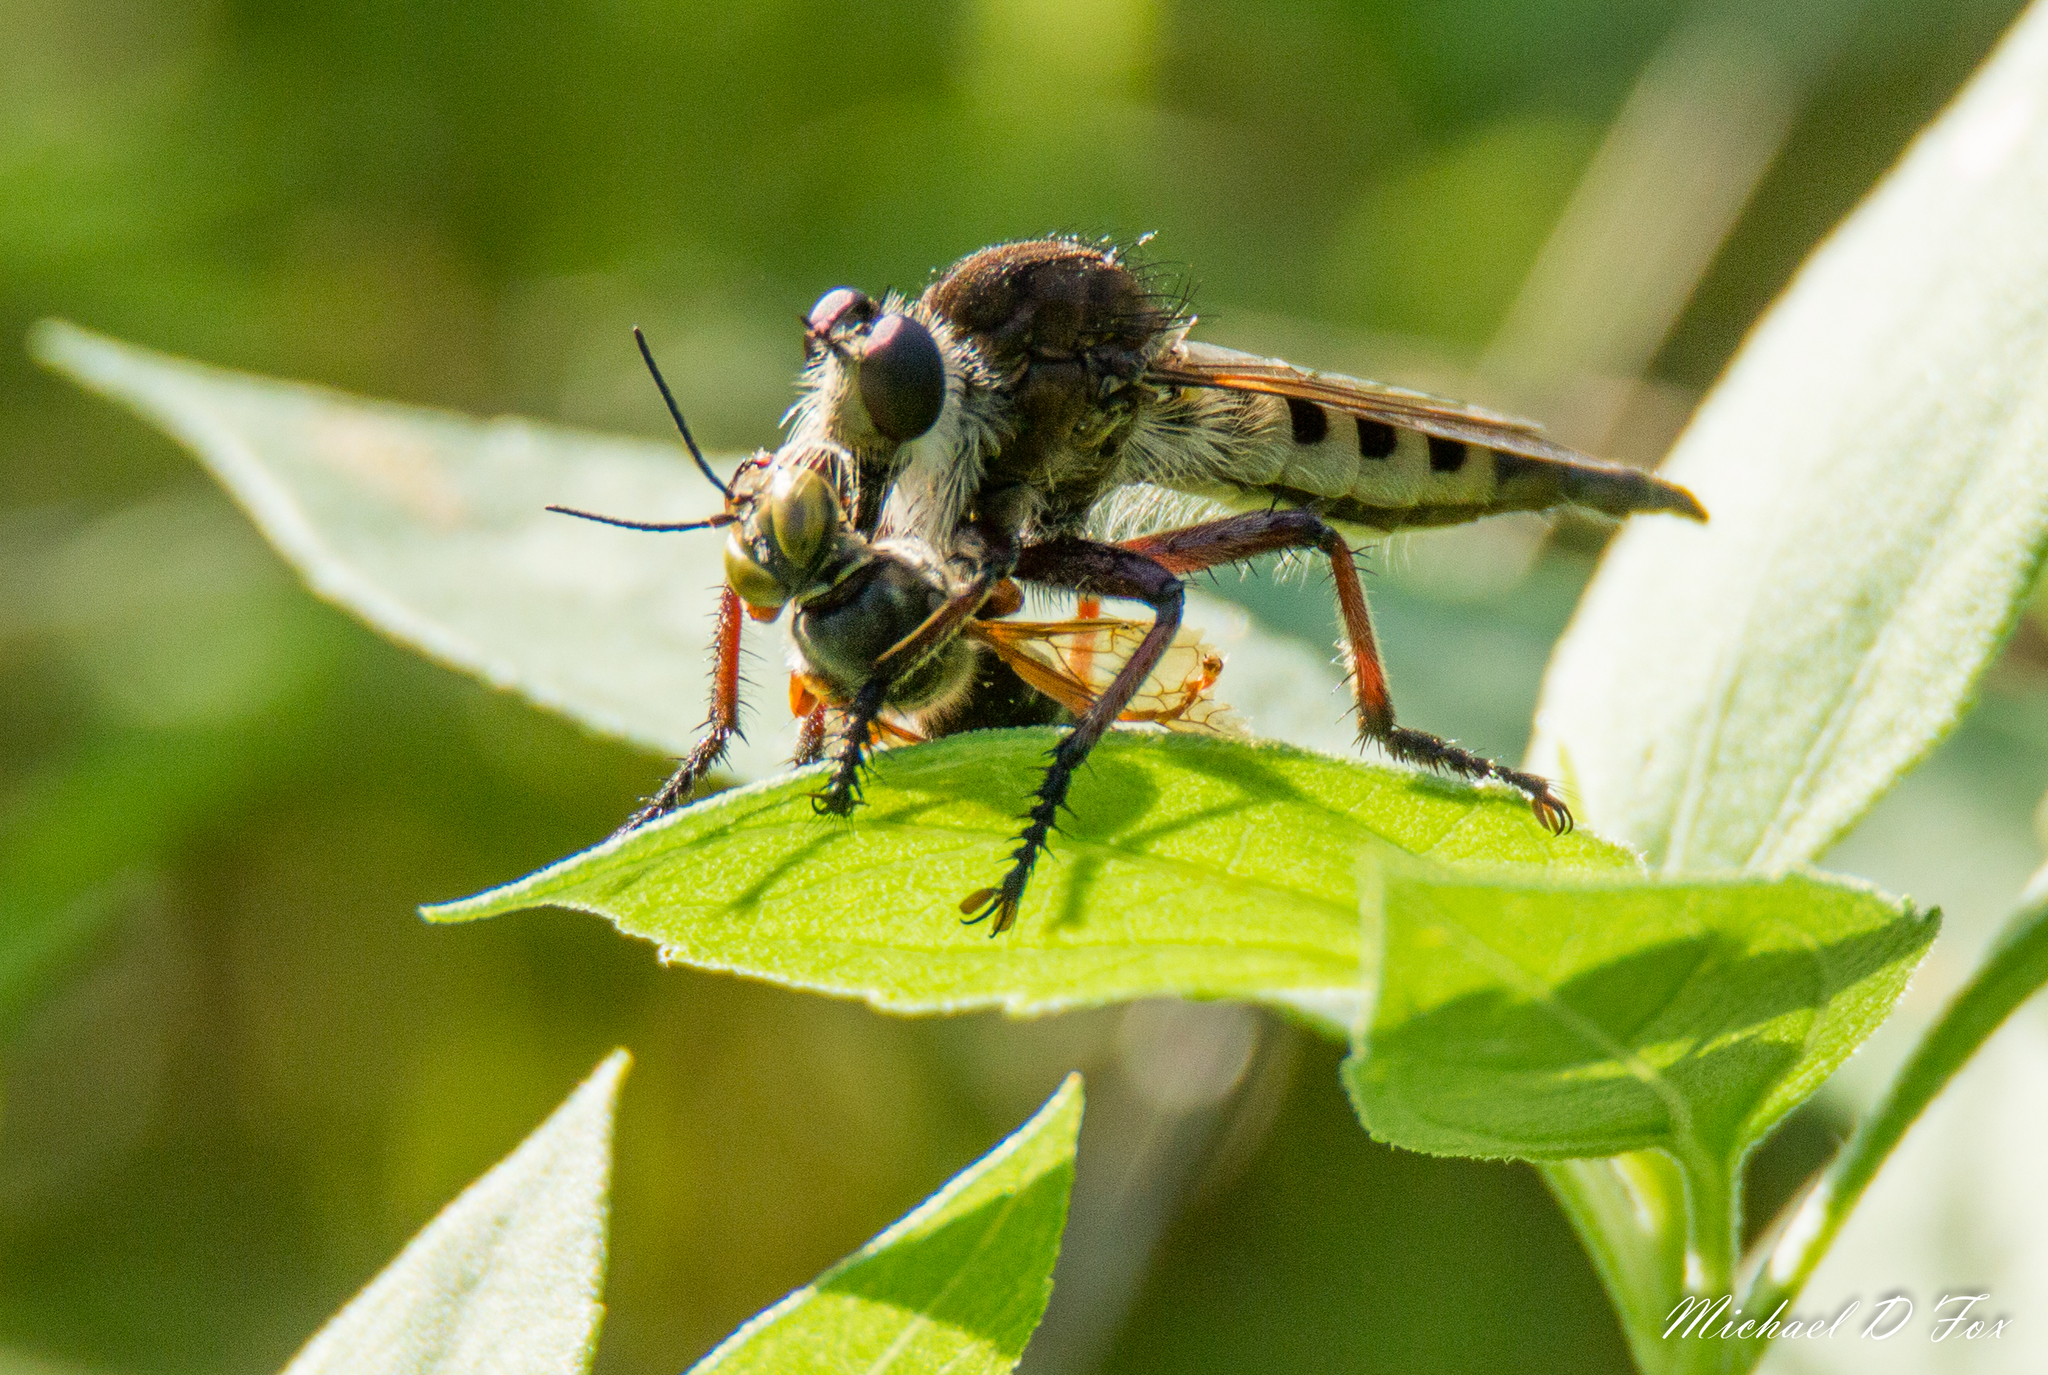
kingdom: Animalia
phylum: Arthropoda
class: Insecta
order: Diptera
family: Asilidae
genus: Promachus
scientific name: Promachus hinei
